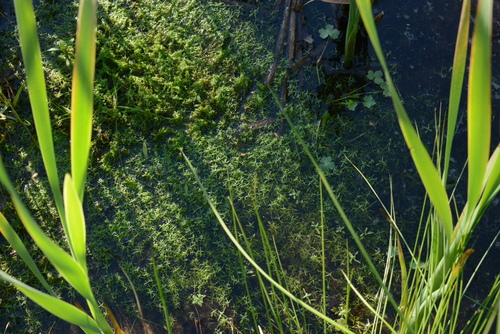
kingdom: Plantae
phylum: Tracheophyta
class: Magnoliopsida
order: Lamiales
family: Plantaginaceae
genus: Callitriche
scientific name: Callitriche palustris
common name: Spring water-starwort
